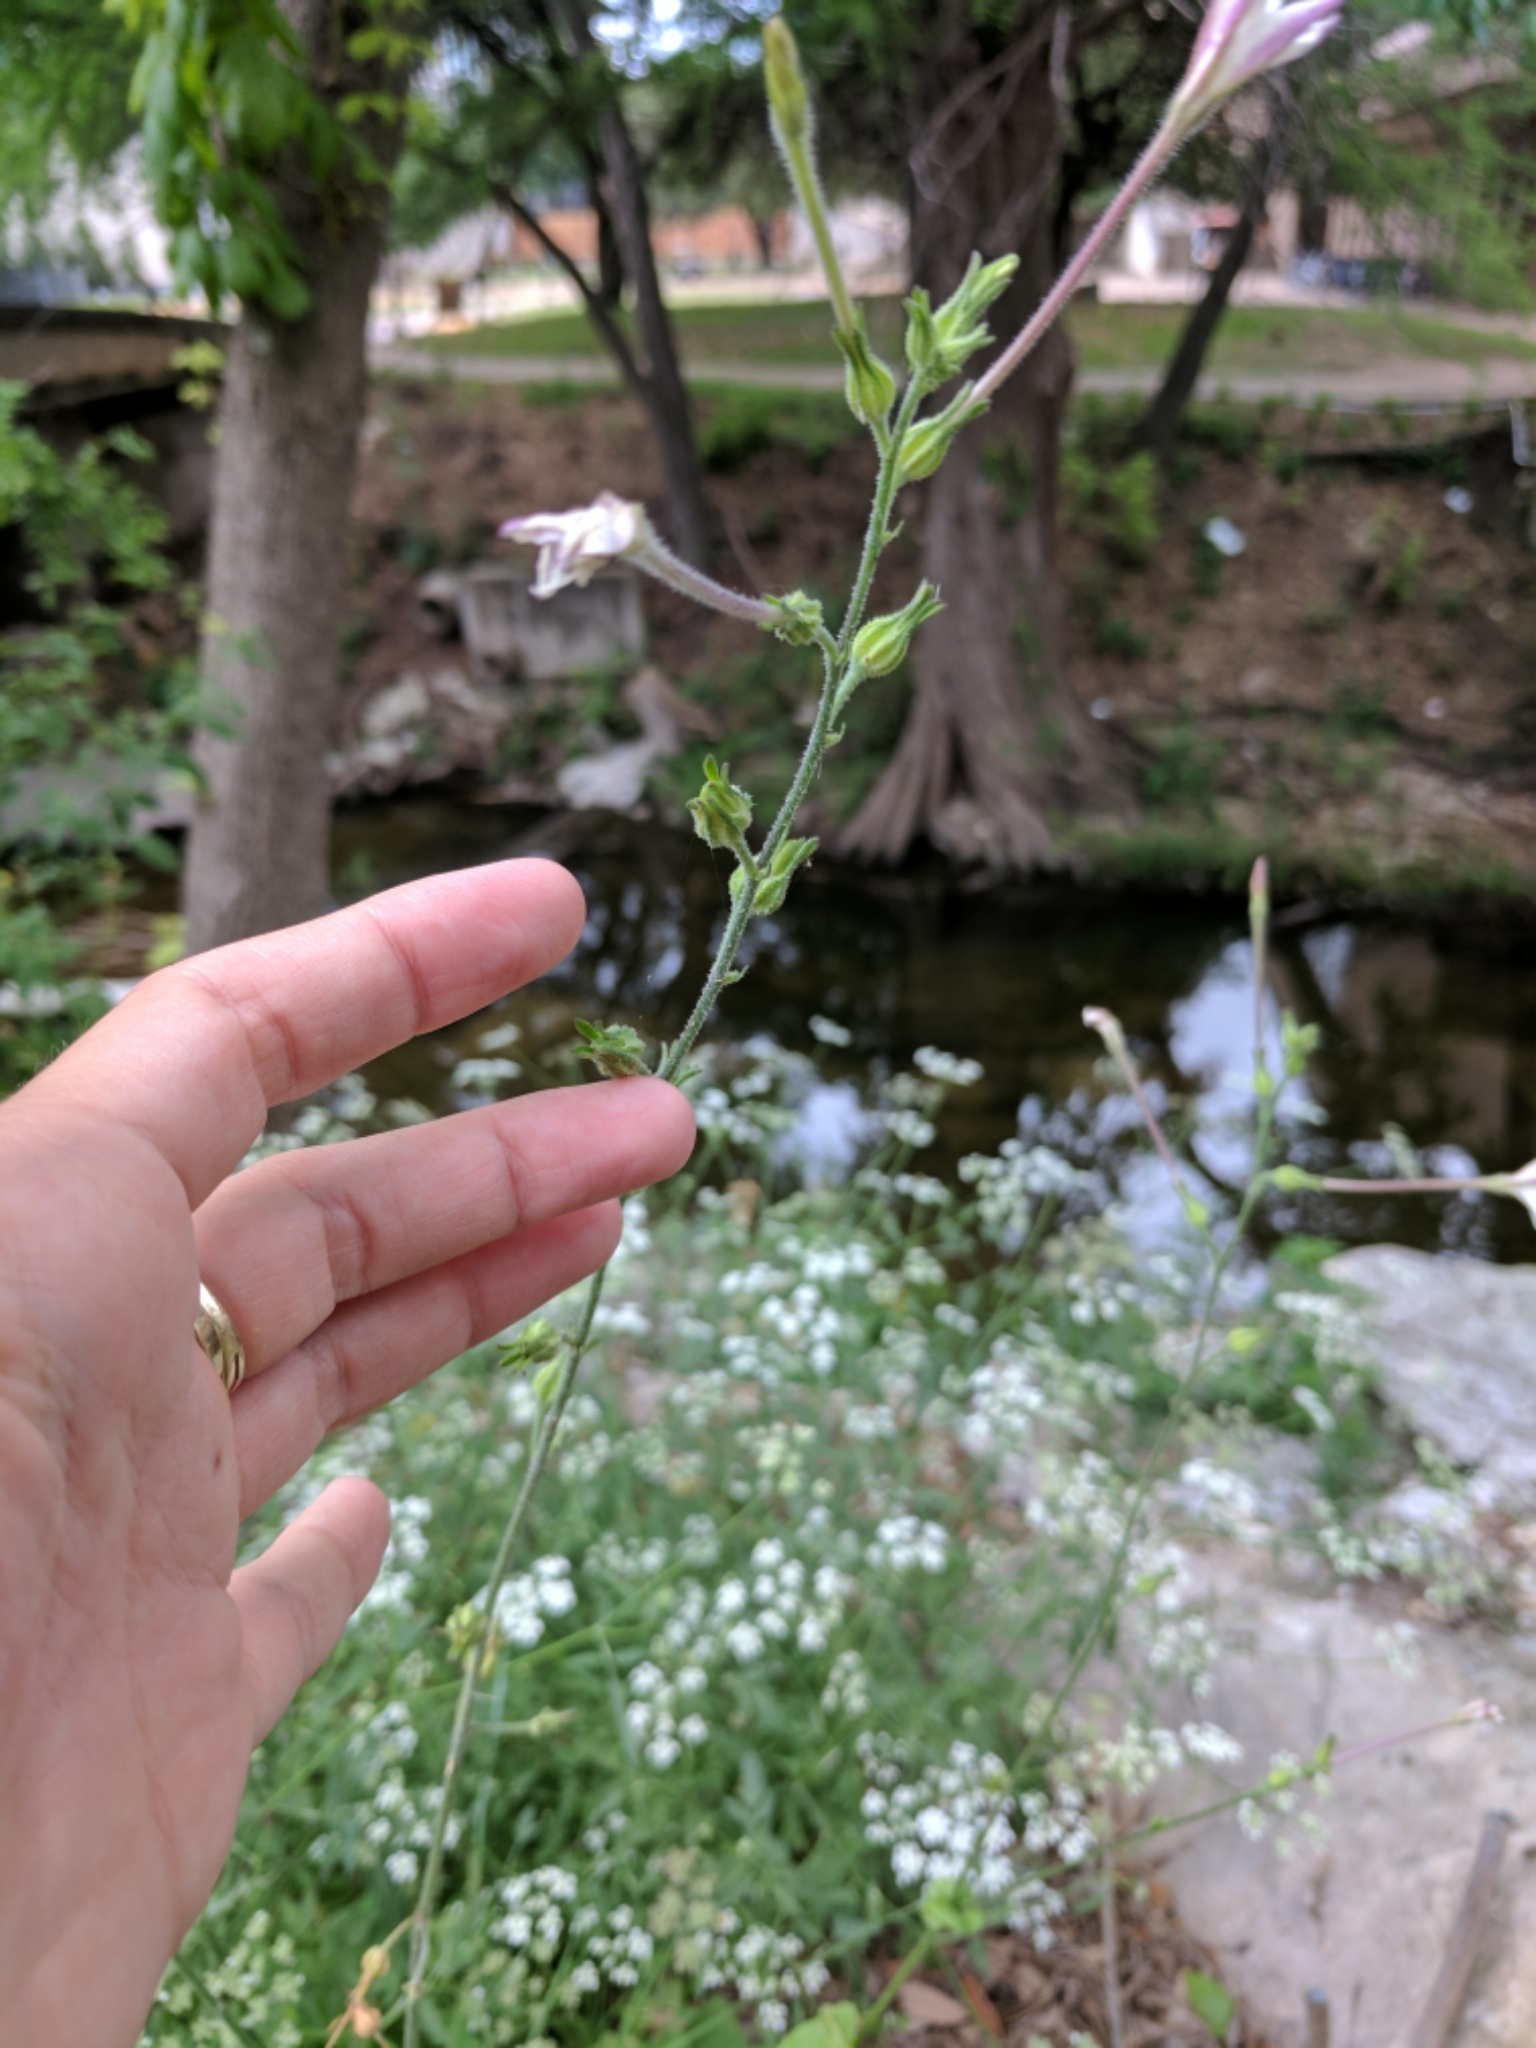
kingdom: Plantae
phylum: Tracheophyta
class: Magnoliopsida
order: Solanales
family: Solanaceae
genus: Nicotiana
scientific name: Nicotiana repanda
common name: Fiddle-leaf tobacco
